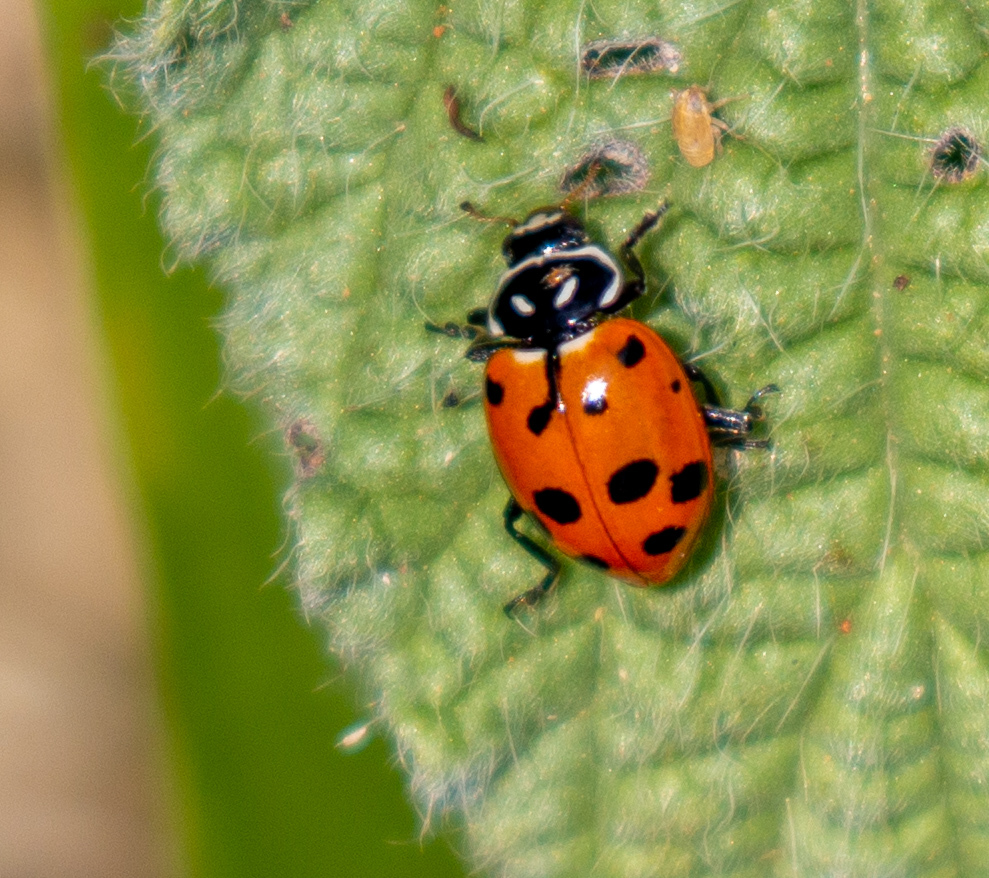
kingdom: Animalia
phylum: Arthropoda
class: Insecta
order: Coleoptera
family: Coccinellidae
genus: Hippodamia
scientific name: Hippodamia convergens
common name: Convergent lady beetle
